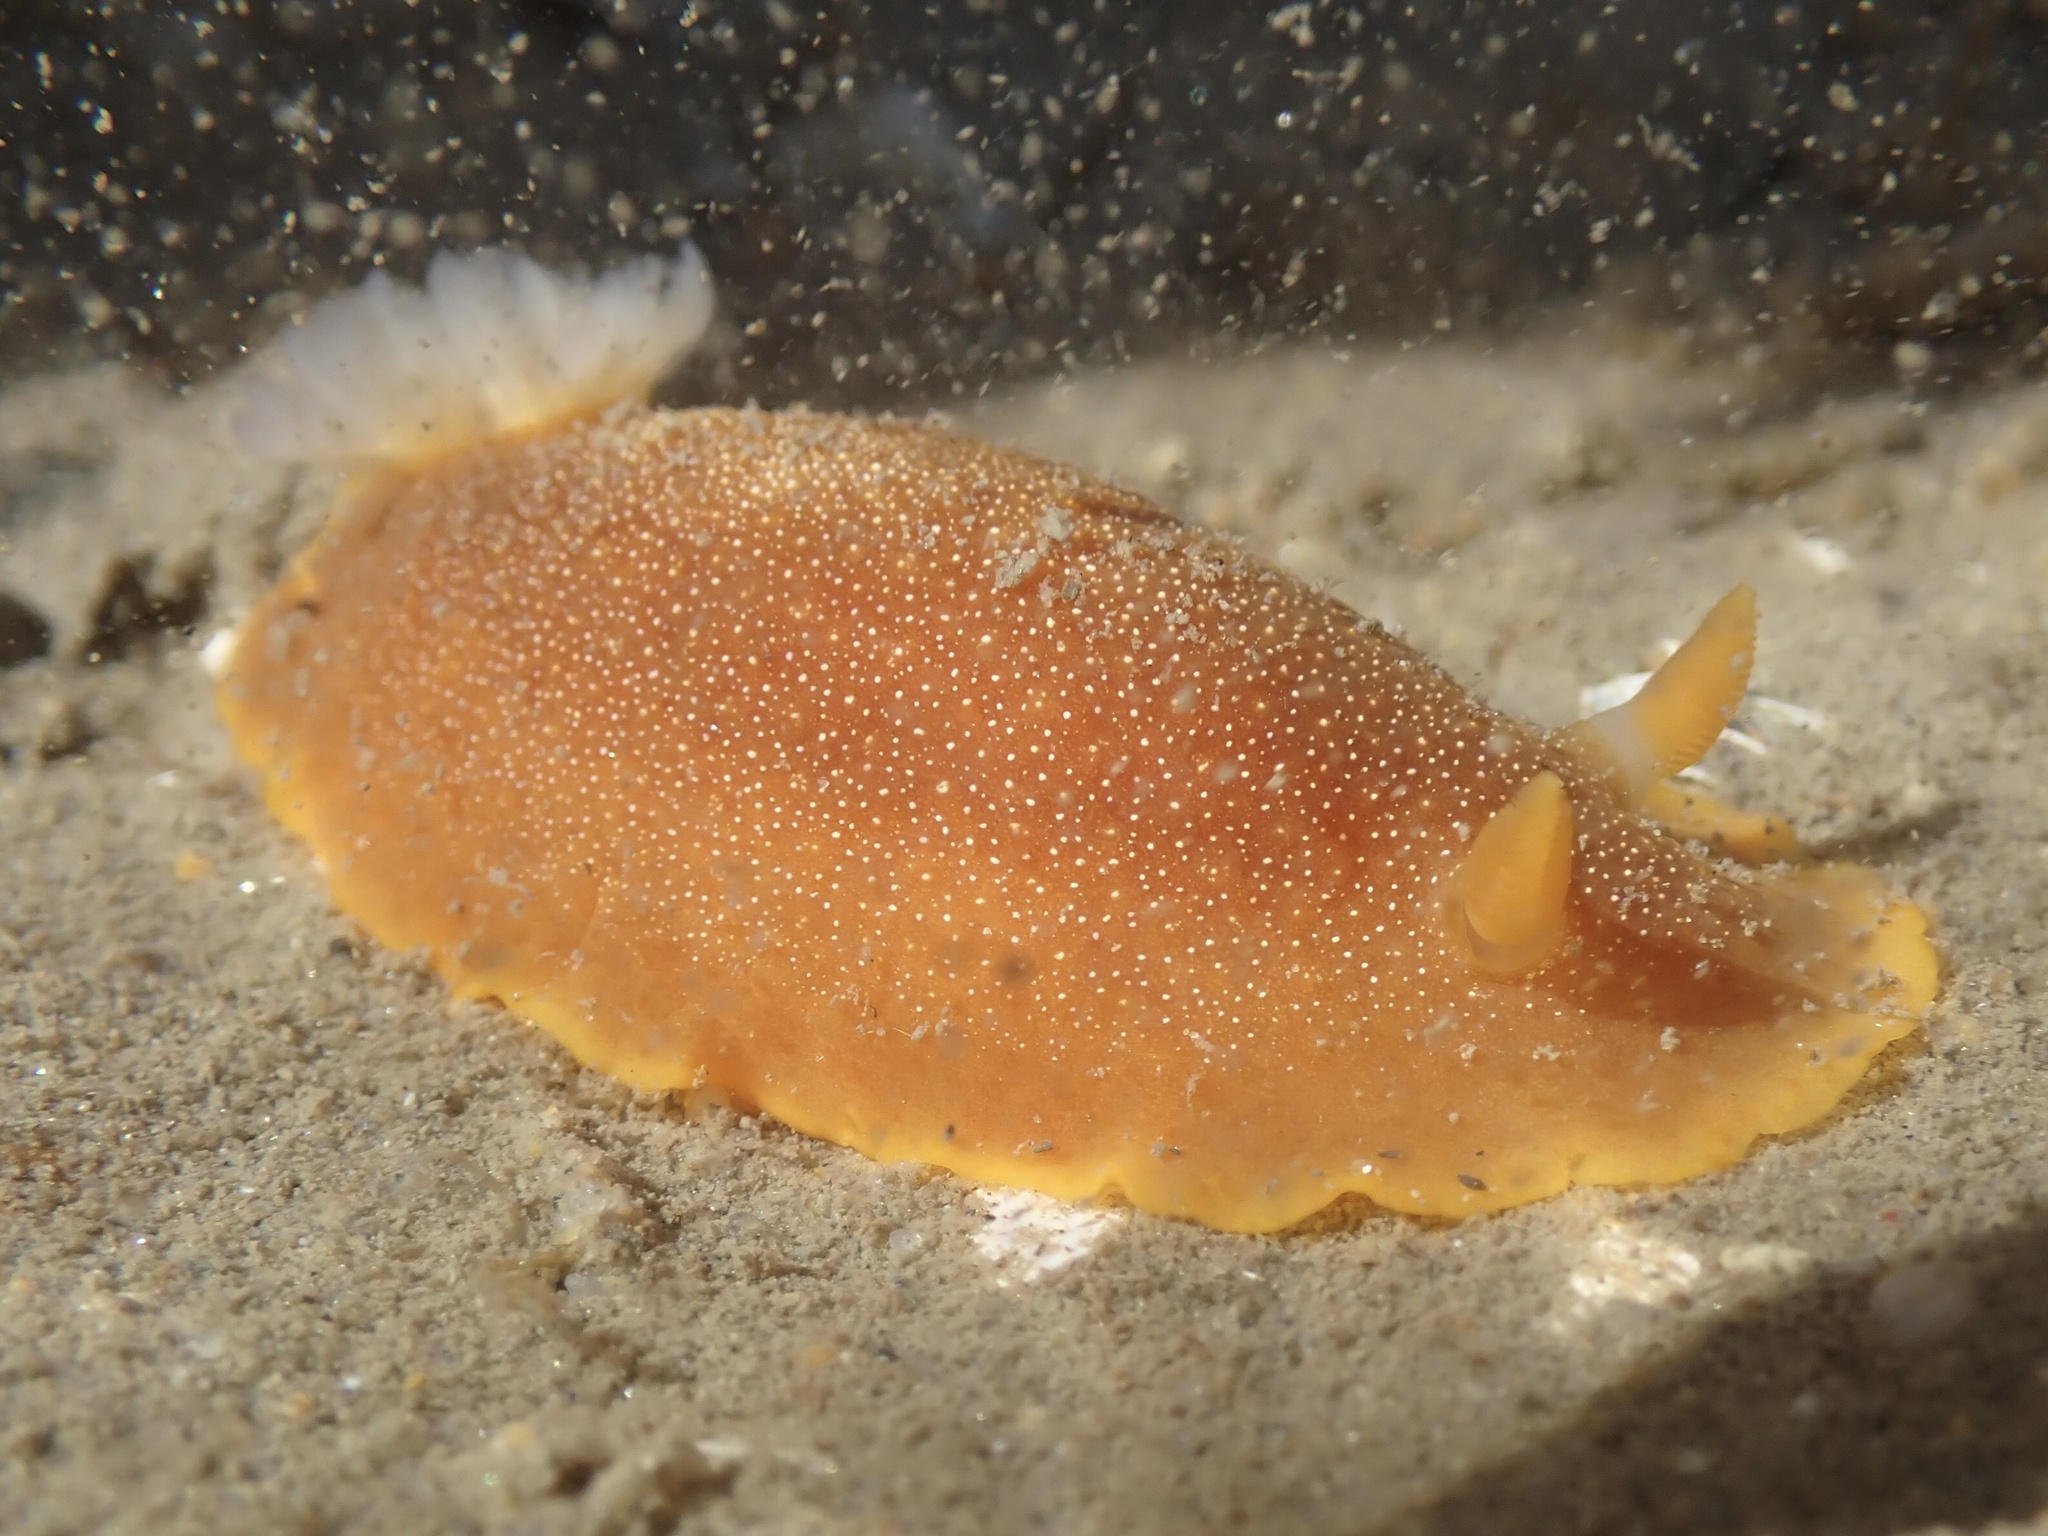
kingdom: Animalia
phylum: Mollusca
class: Gastropoda
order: Nudibranchia
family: Dendrodorididae
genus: Doriopsilla
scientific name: Doriopsilla albopunctata
